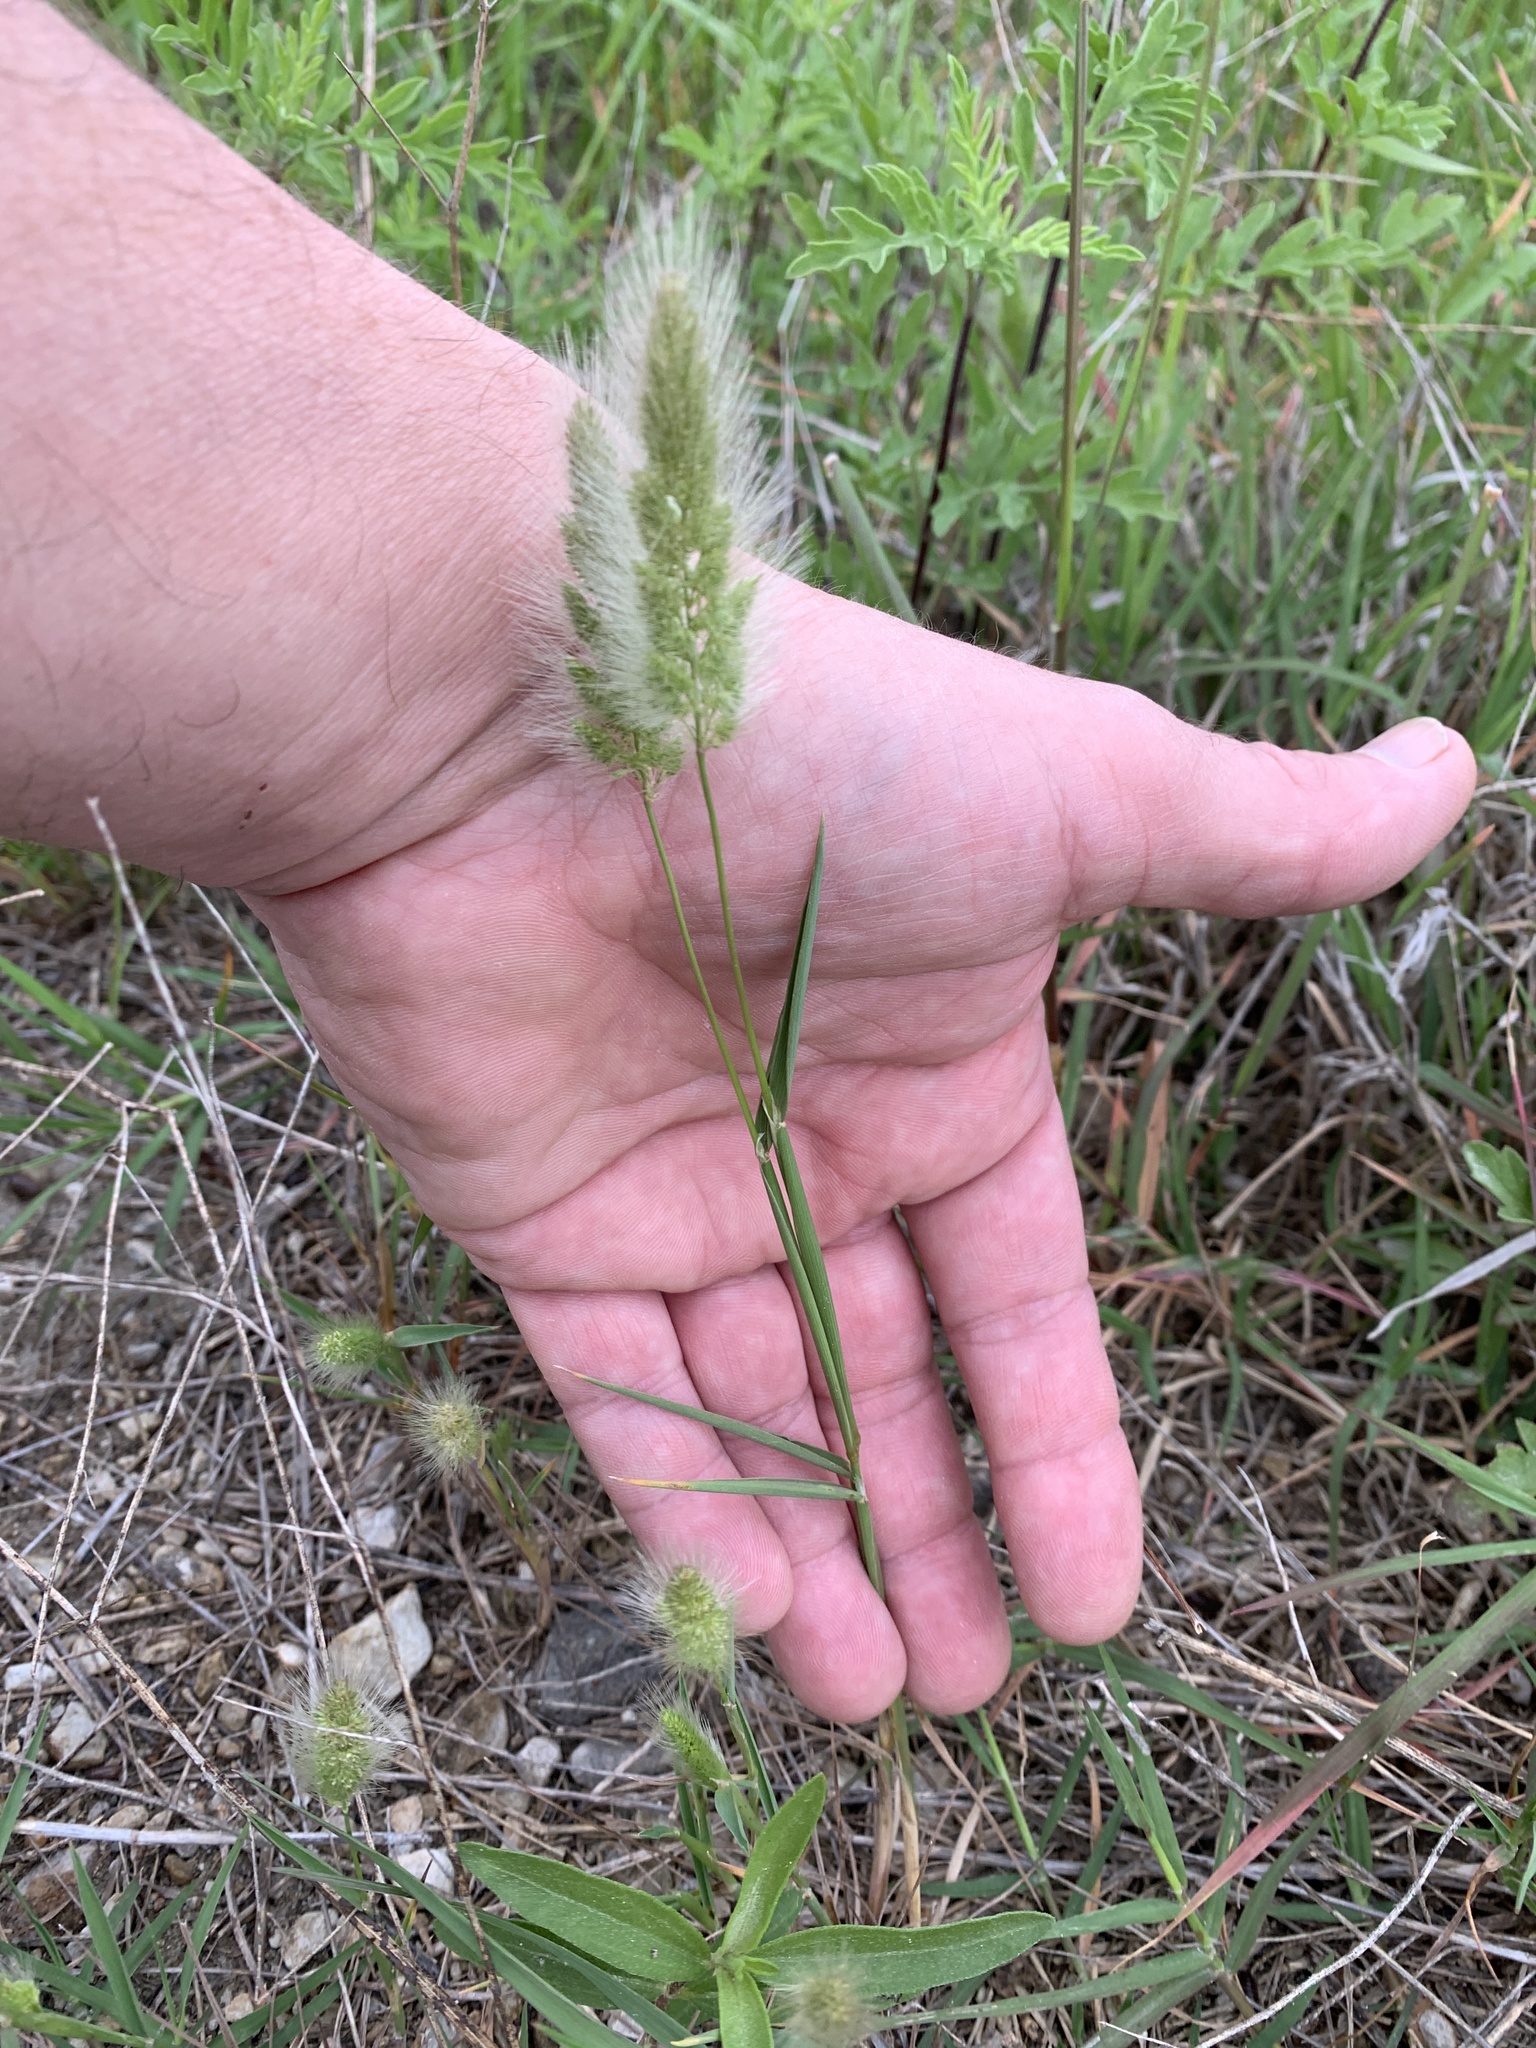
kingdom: Plantae
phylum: Tracheophyta
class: Liliopsida
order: Poales
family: Poaceae
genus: Polypogon
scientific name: Polypogon monspeliensis
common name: Annual rabbitsfoot grass
